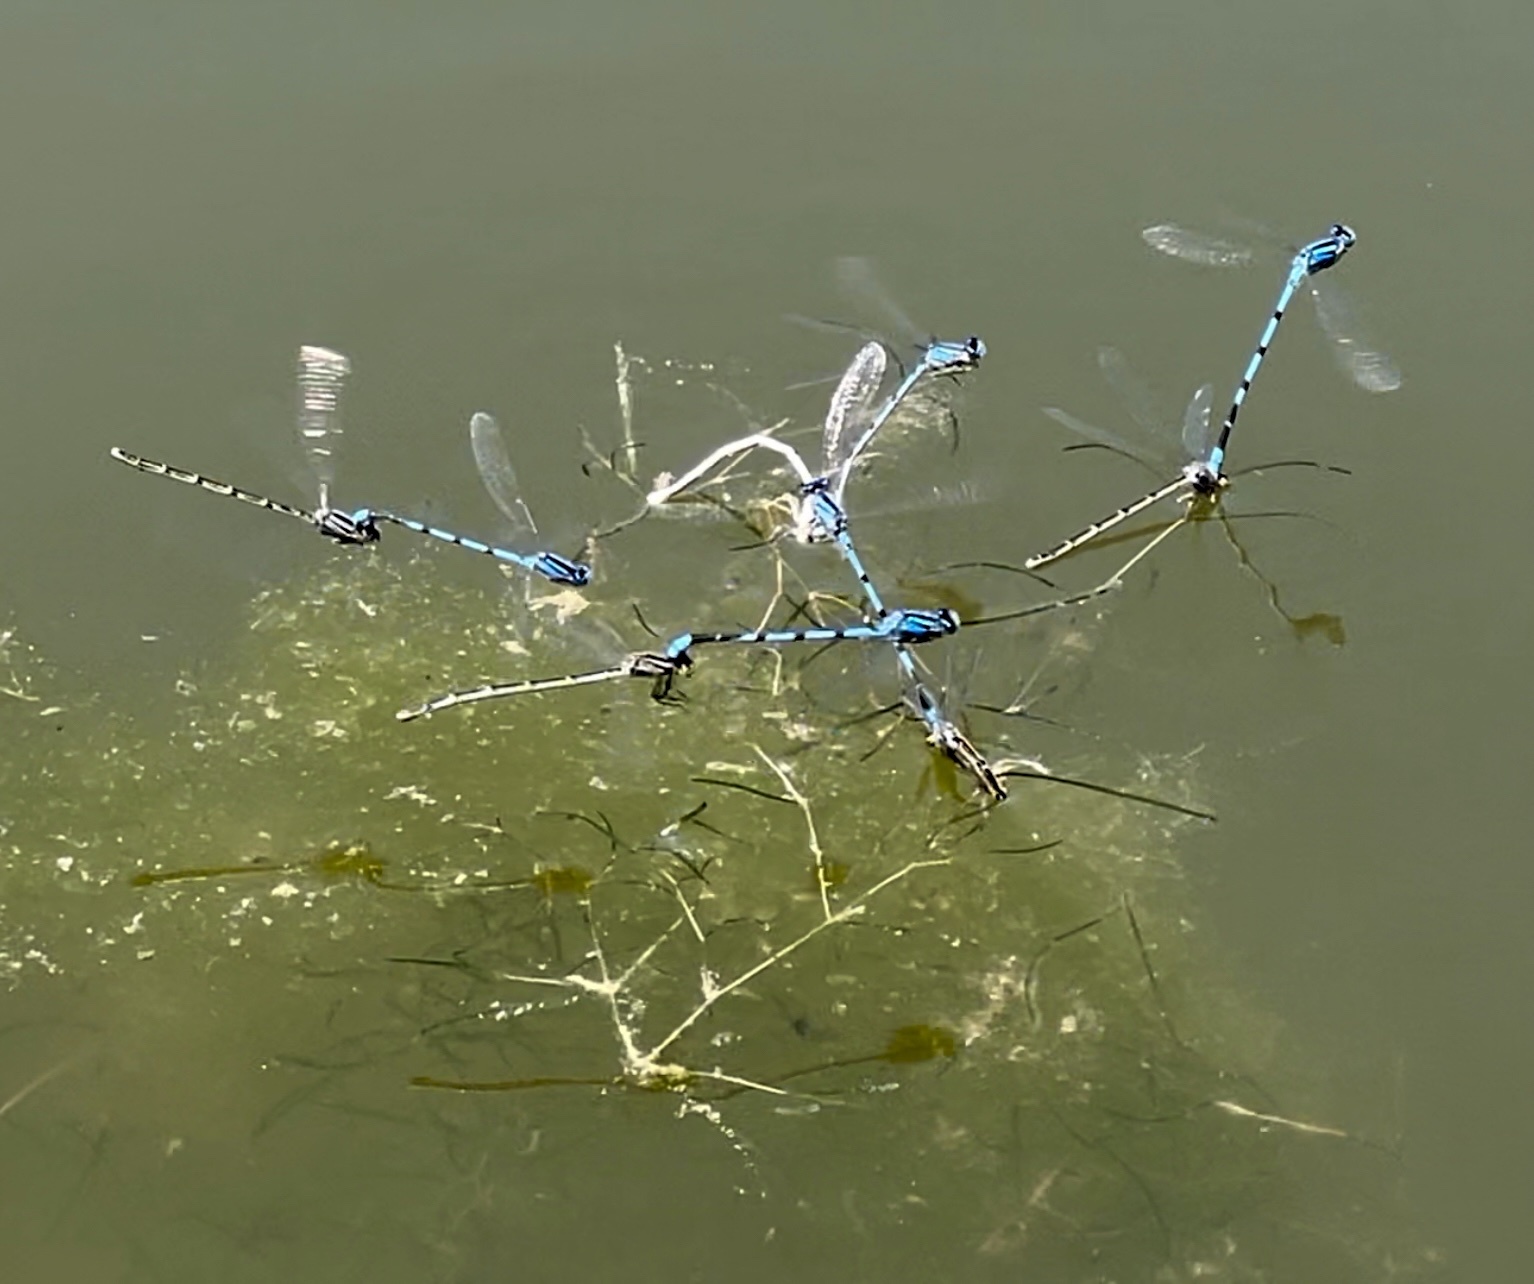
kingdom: Animalia
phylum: Arthropoda
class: Insecta
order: Odonata
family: Coenagrionidae
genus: Enallagma
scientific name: Enallagma civile
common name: Damselfly
